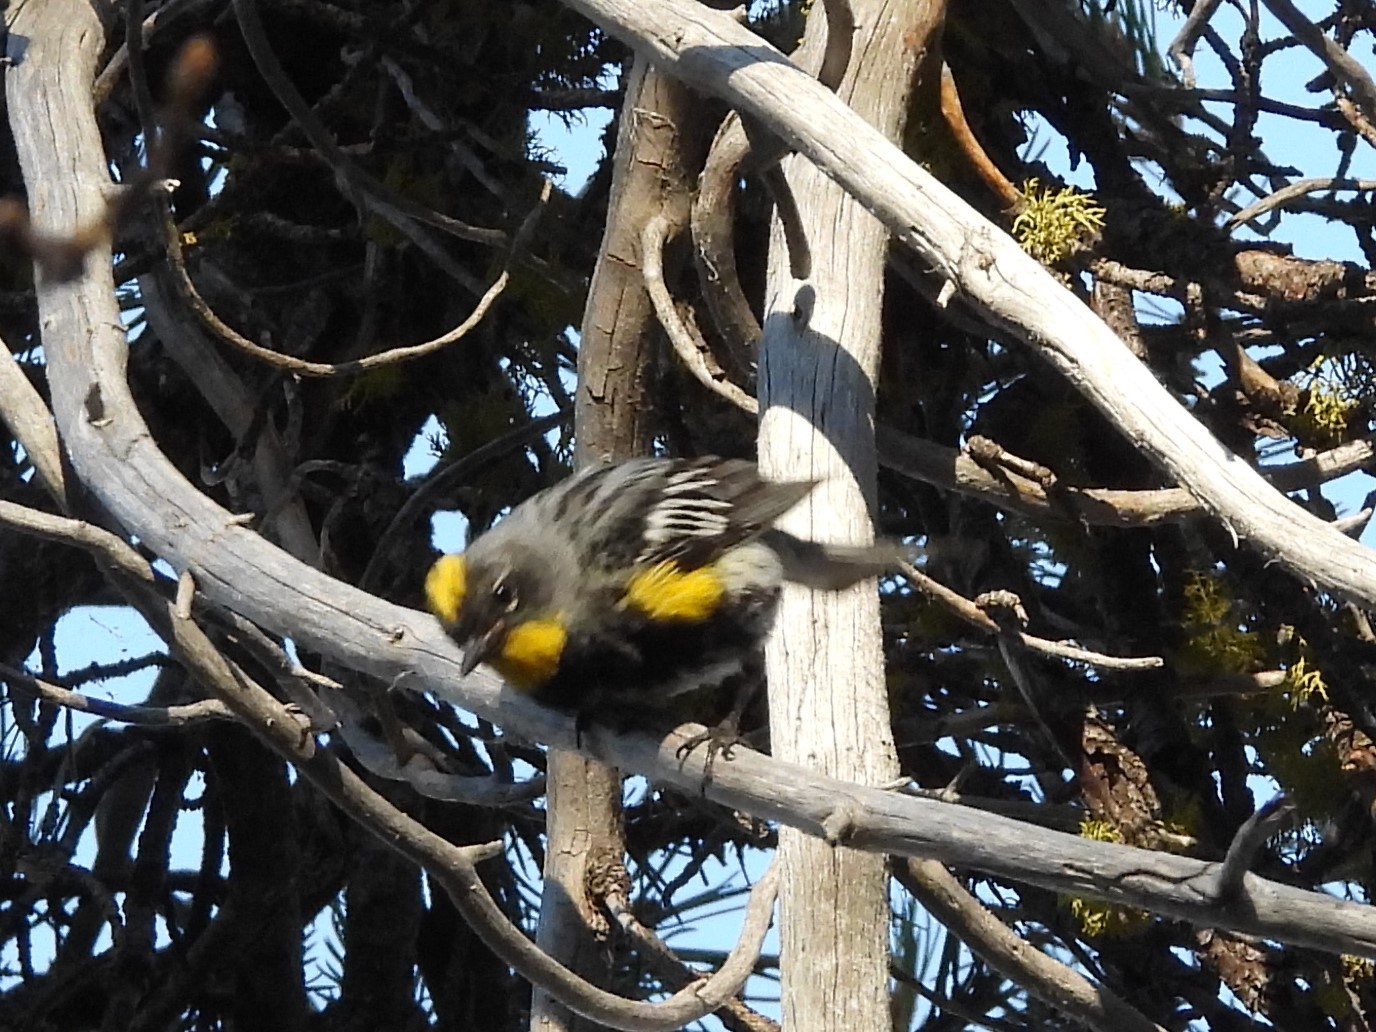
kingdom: Animalia
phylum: Chordata
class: Aves
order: Passeriformes
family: Parulidae
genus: Setophaga
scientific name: Setophaga coronata
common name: Myrtle warbler
